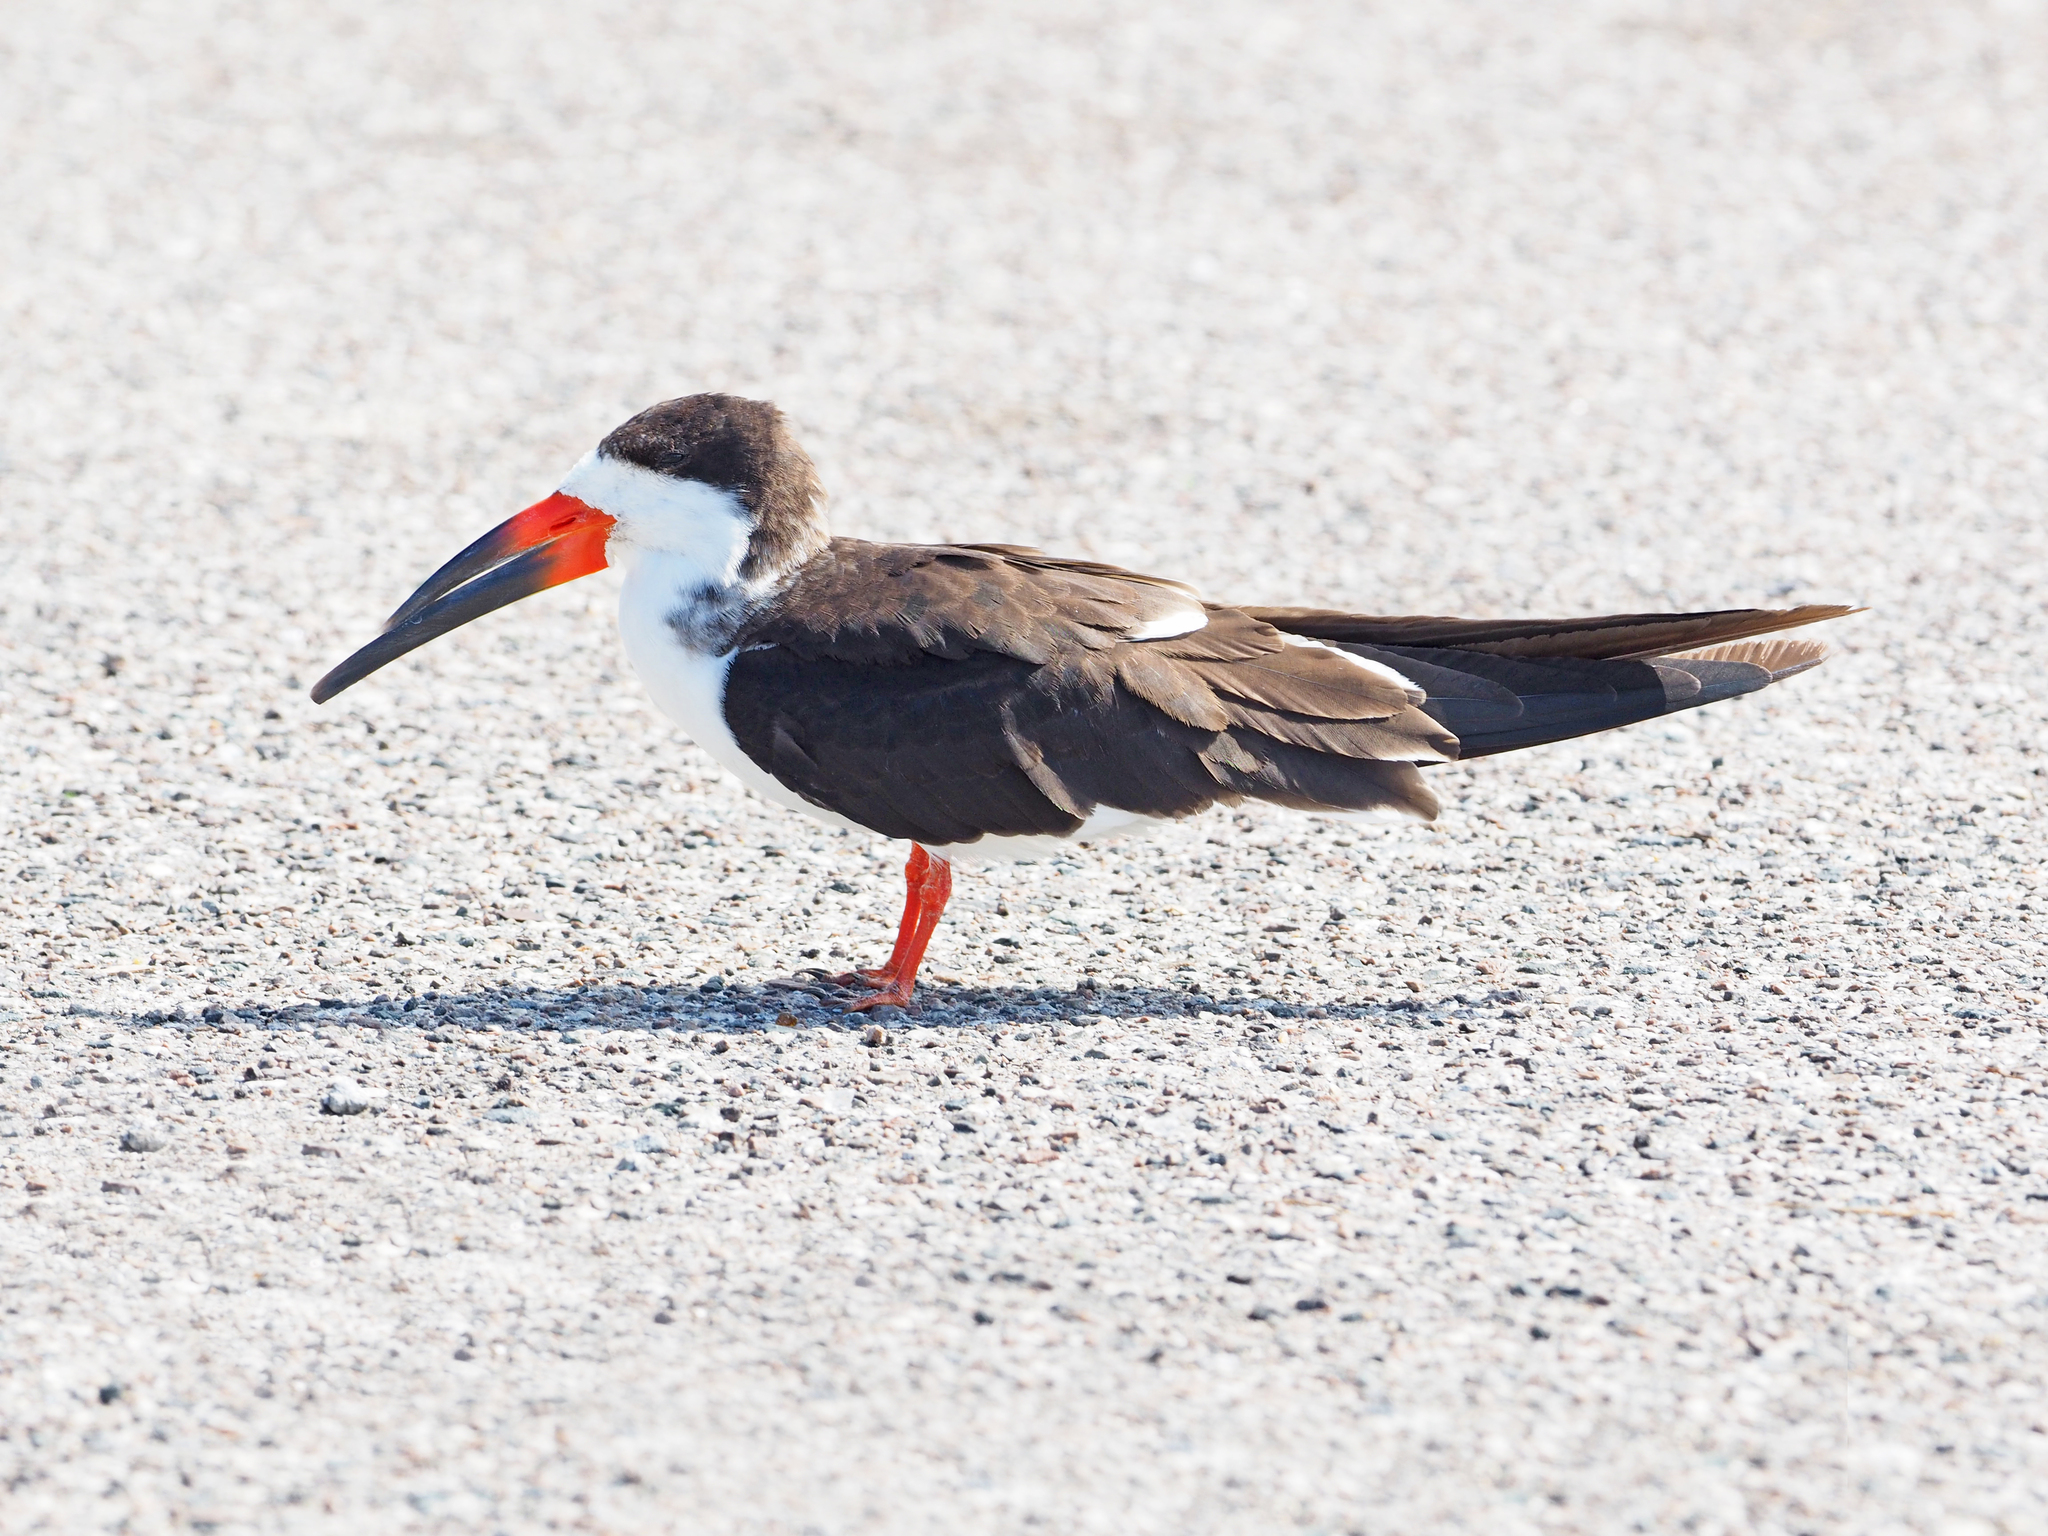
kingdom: Animalia
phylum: Chordata
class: Aves
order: Charadriiformes
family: Laridae
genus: Rynchops
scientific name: Rynchops niger
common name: Black skimmer
